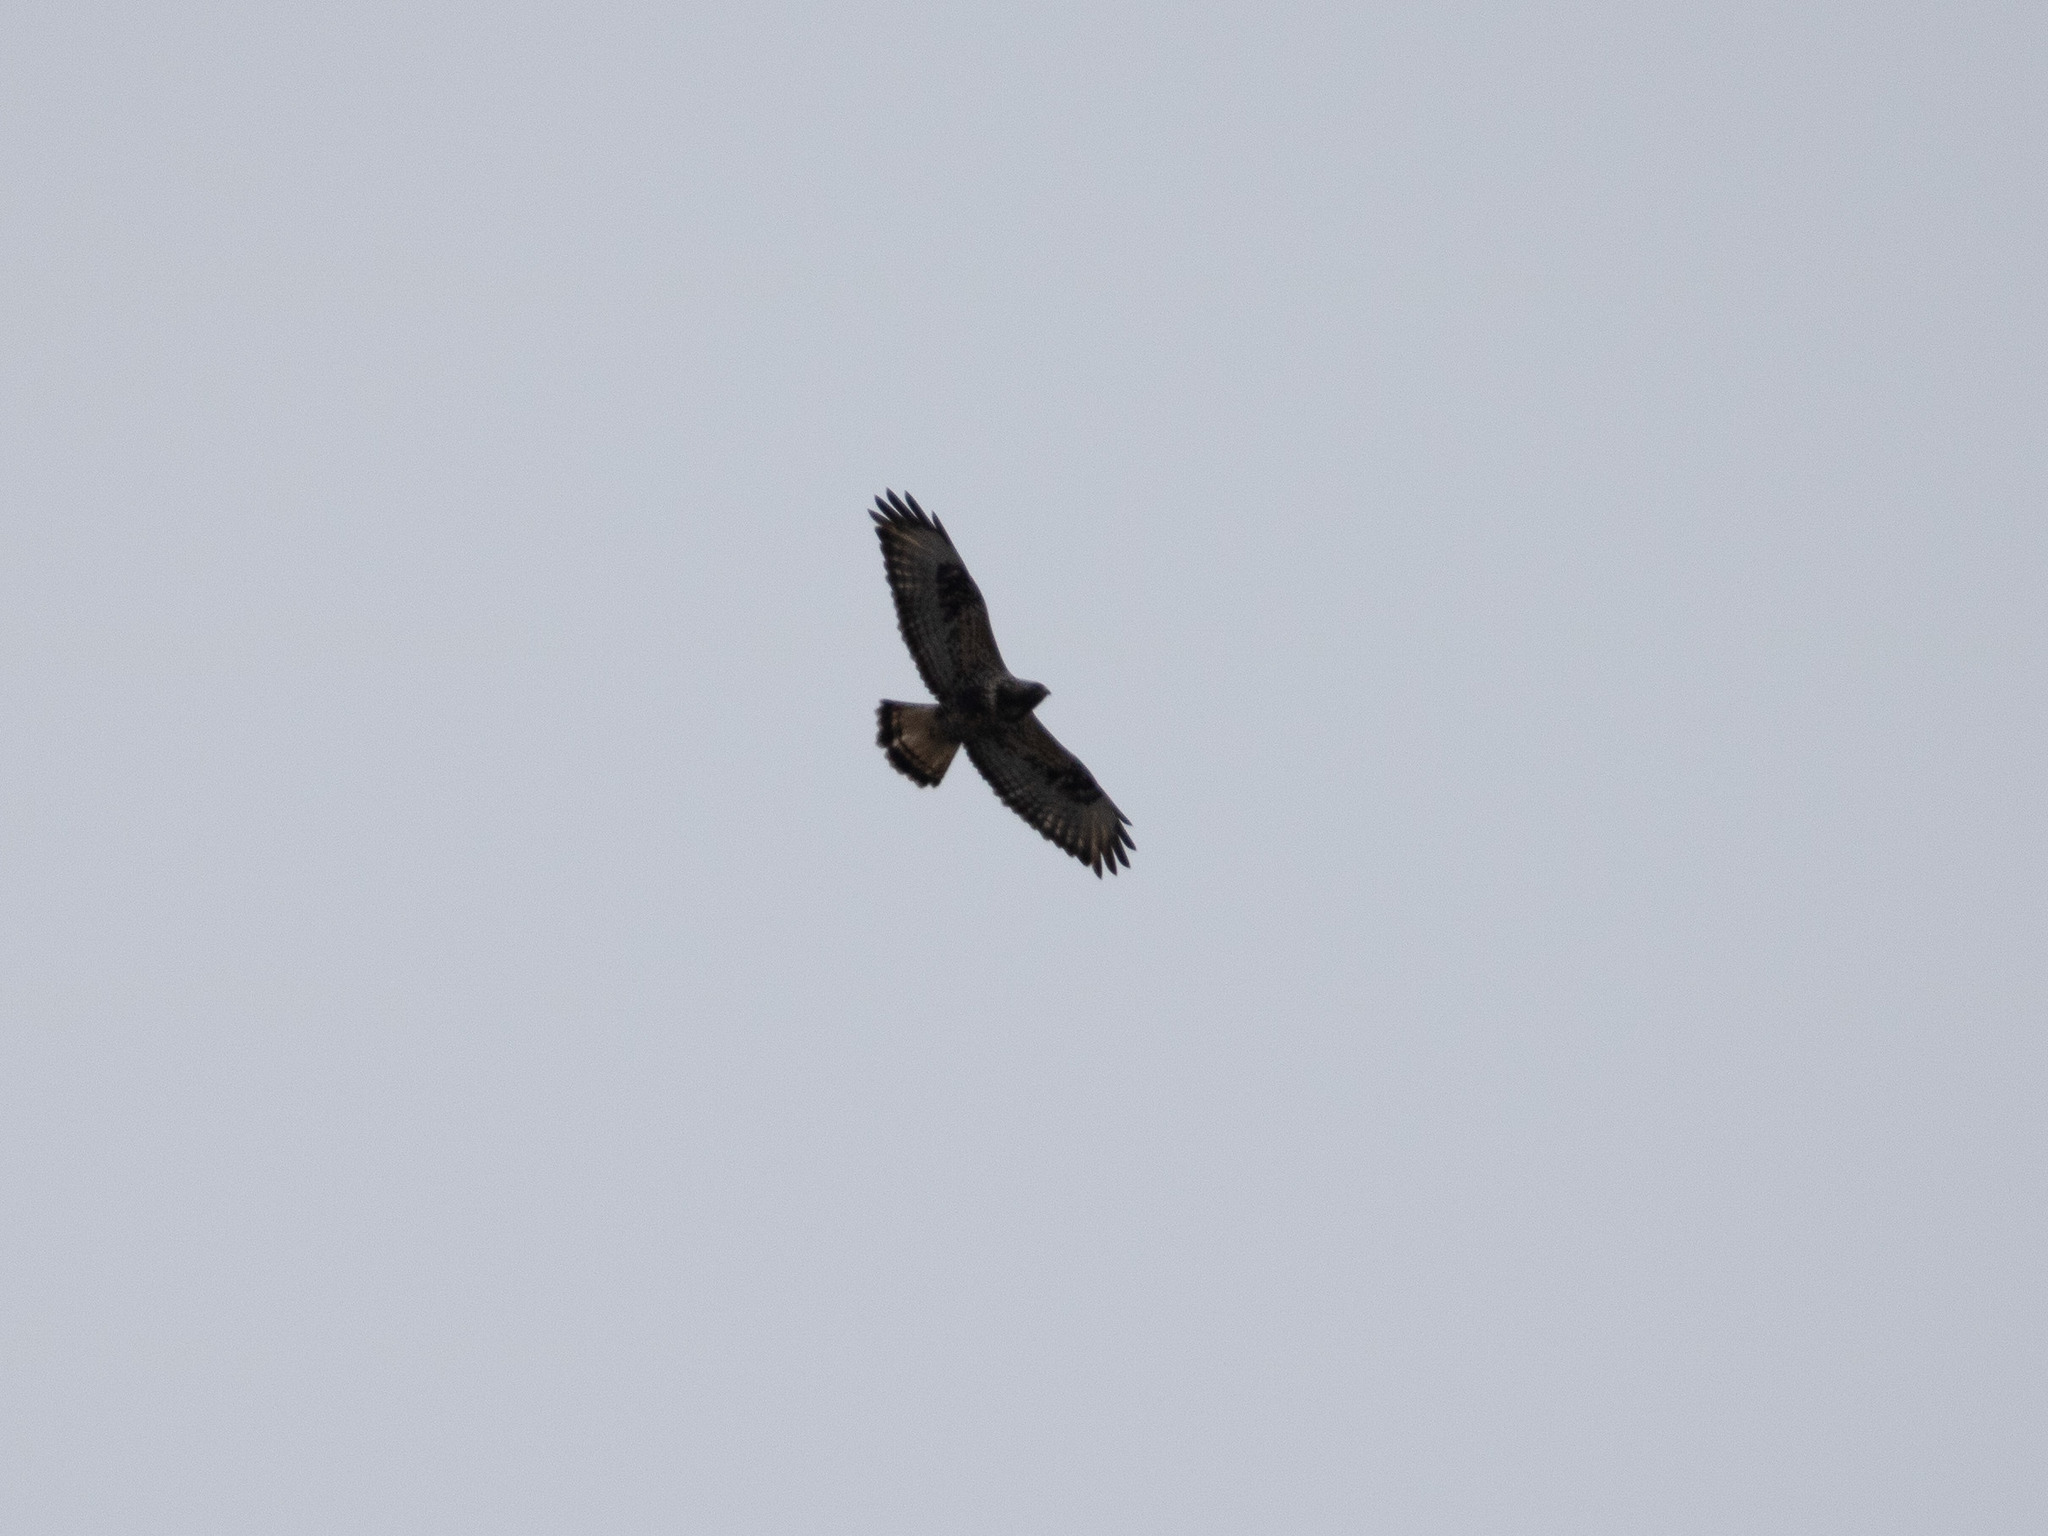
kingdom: Animalia
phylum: Chordata
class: Aves
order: Accipitriformes
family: Accipitridae
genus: Buteo
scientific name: Buteo buteo
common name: Common buzzard
